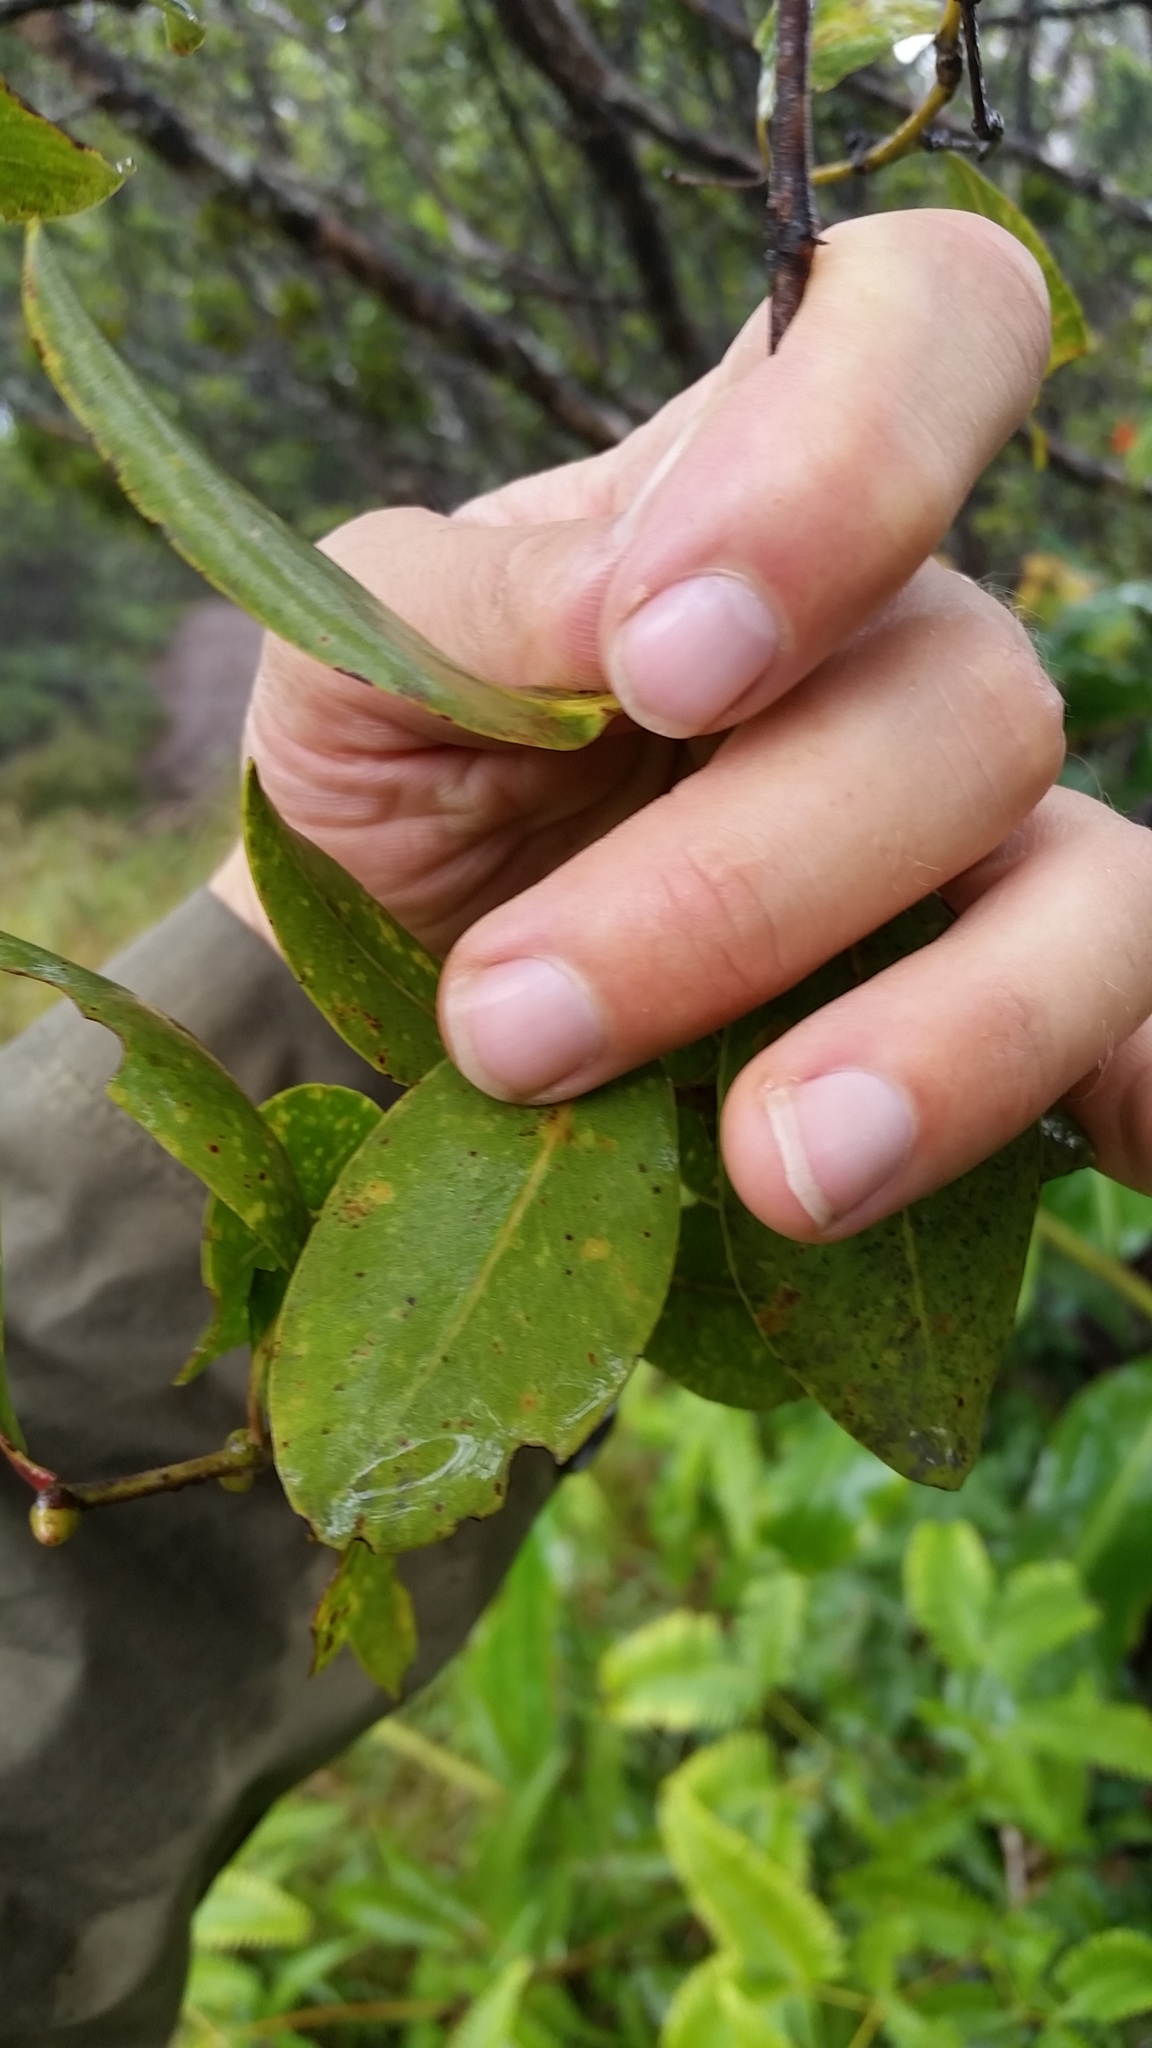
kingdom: Plantae
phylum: Tracheophyta
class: Magnoliopsida
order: Myrtales
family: Myrtaceae
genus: Metrosideros
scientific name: Metrosideros waialealae
